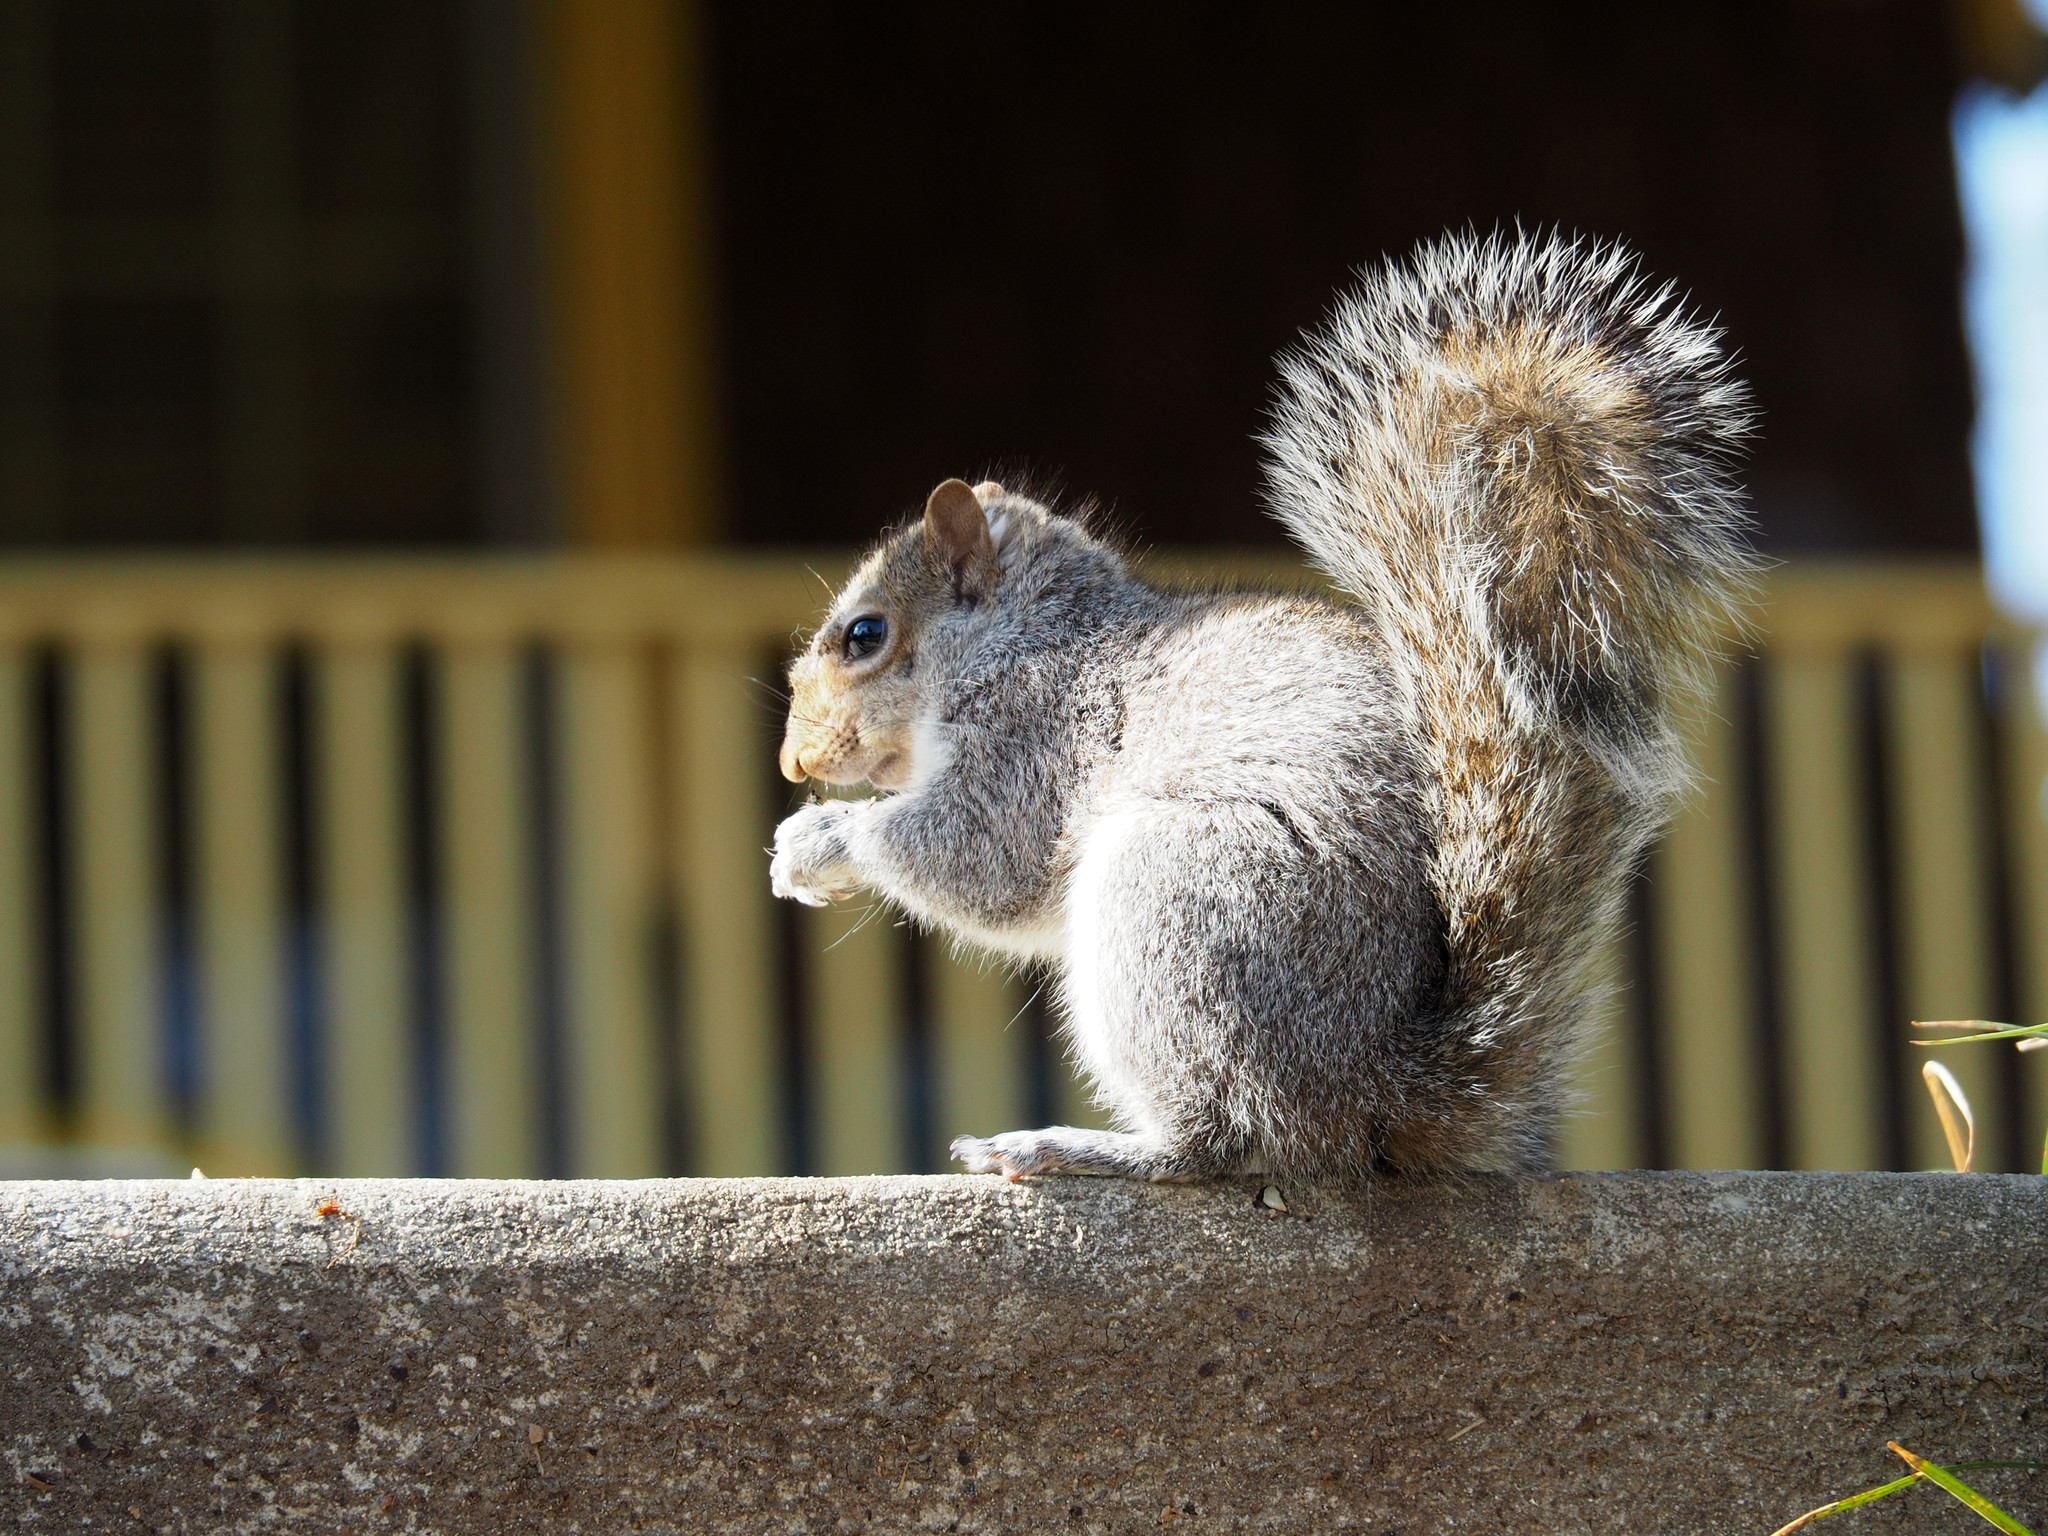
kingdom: Animalia
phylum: Chordata
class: Mammalia
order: Rodentia
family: Sciuridae
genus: Sciurus
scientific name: Sciurus carolinensis
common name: Eastern gray squirrel
